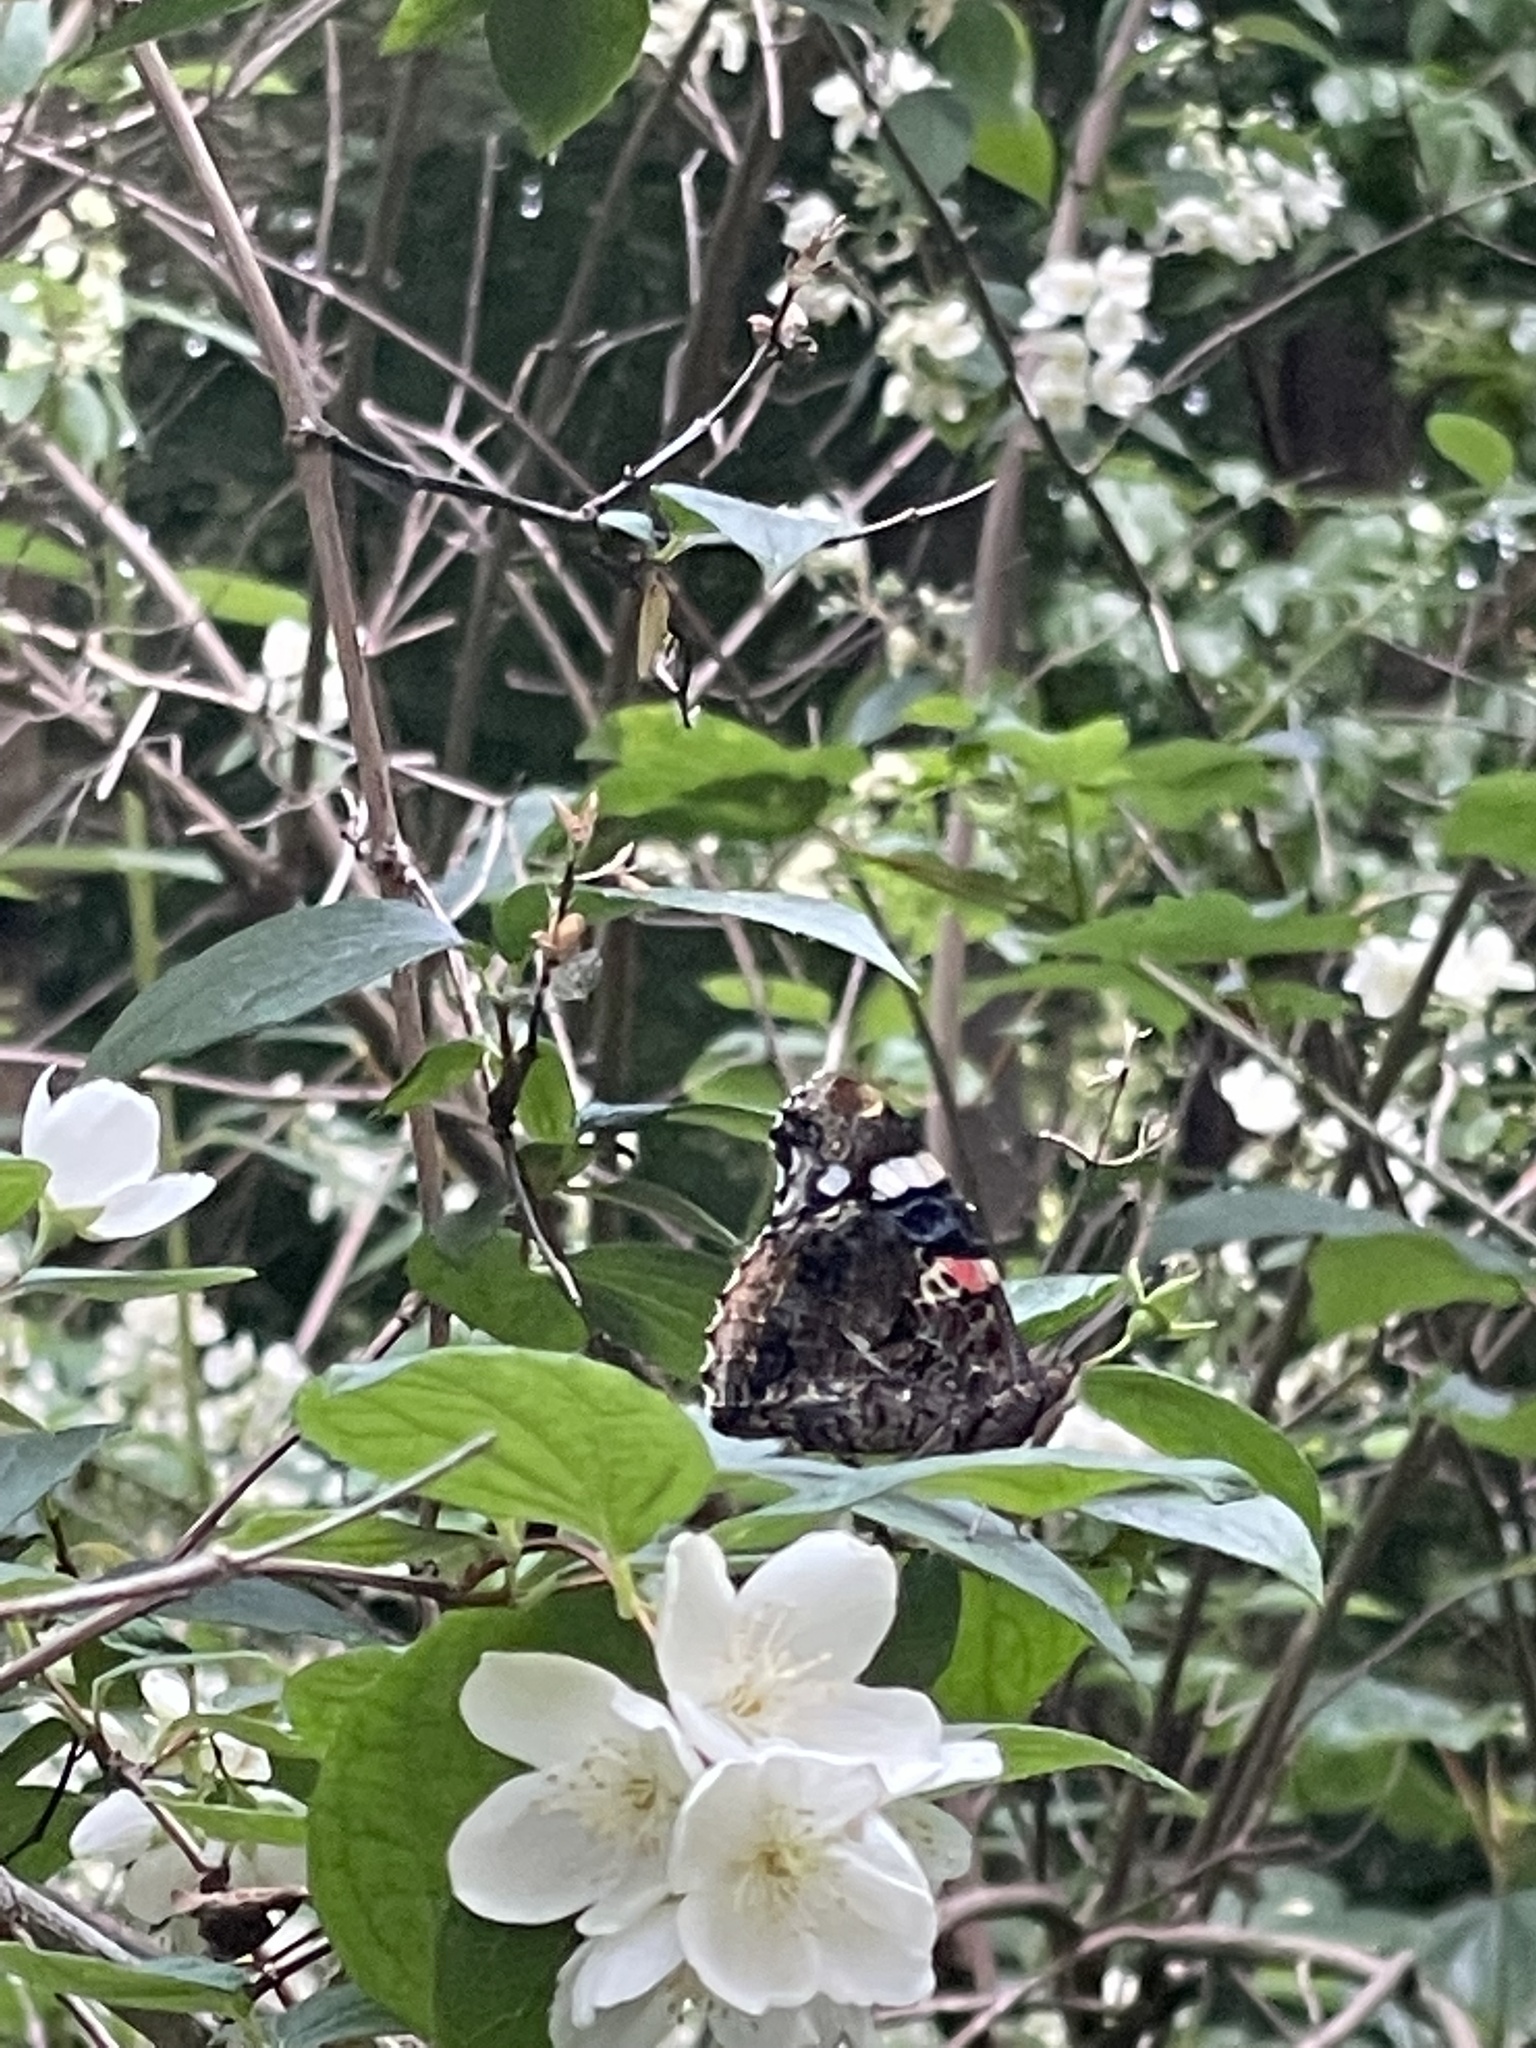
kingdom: Animalia
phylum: Arthropoda
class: Insecta
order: Lepidoptera
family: Nymphalidae
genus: Vanessa
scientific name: Vanessa atalanta
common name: Red admiral
